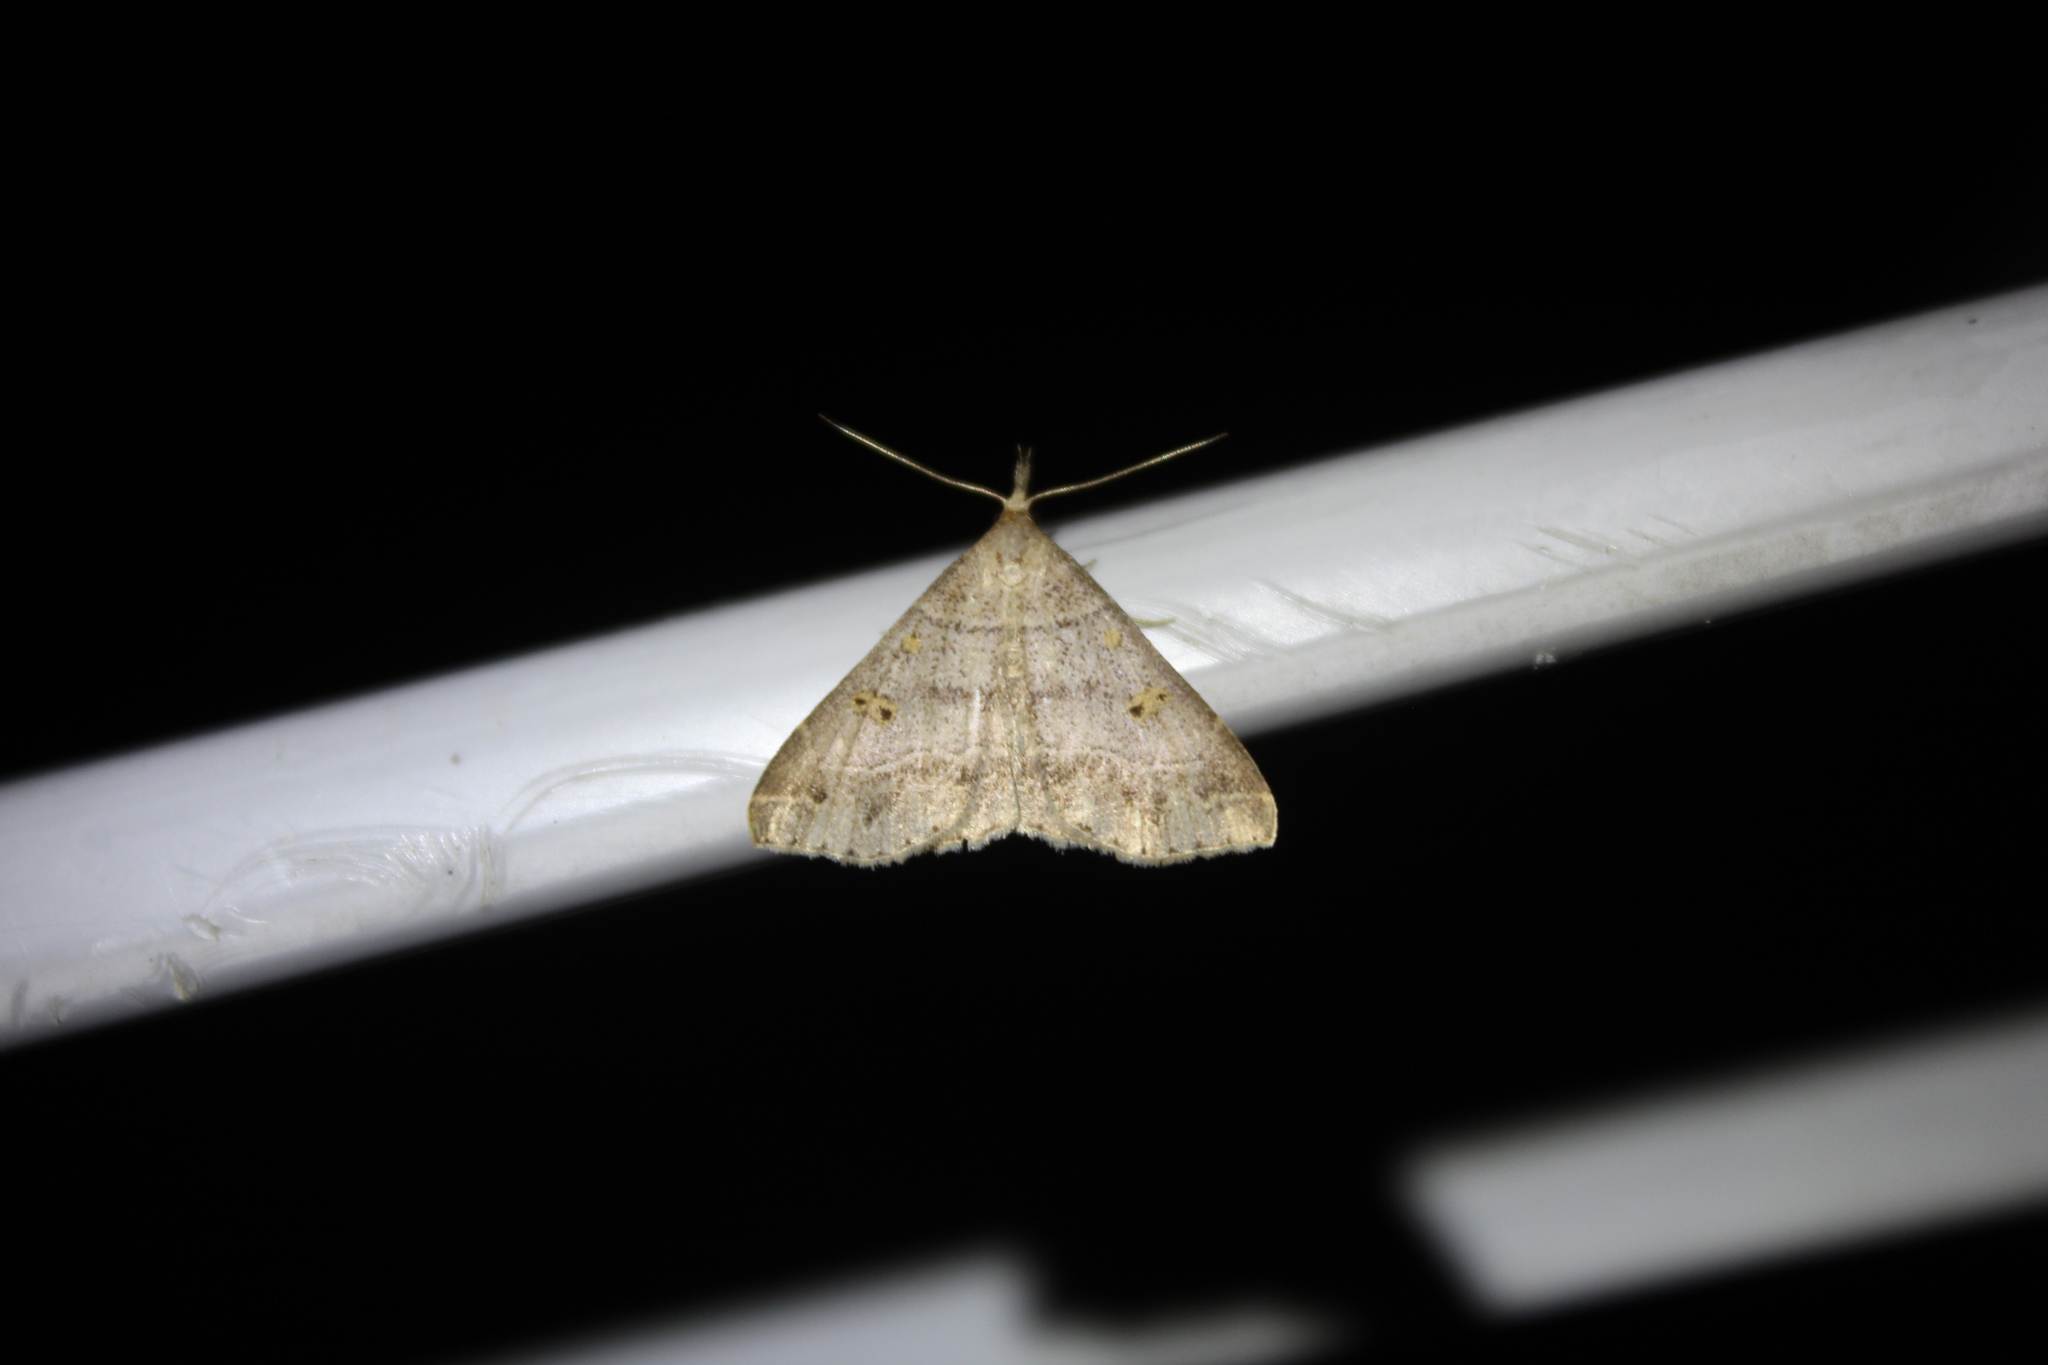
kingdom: Animalia
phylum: Arthropoda
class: Insecta
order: Lepidoptera
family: Erebidae
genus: Renia
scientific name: Renia flavipunctalis
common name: Yellow-spotted renia moth
